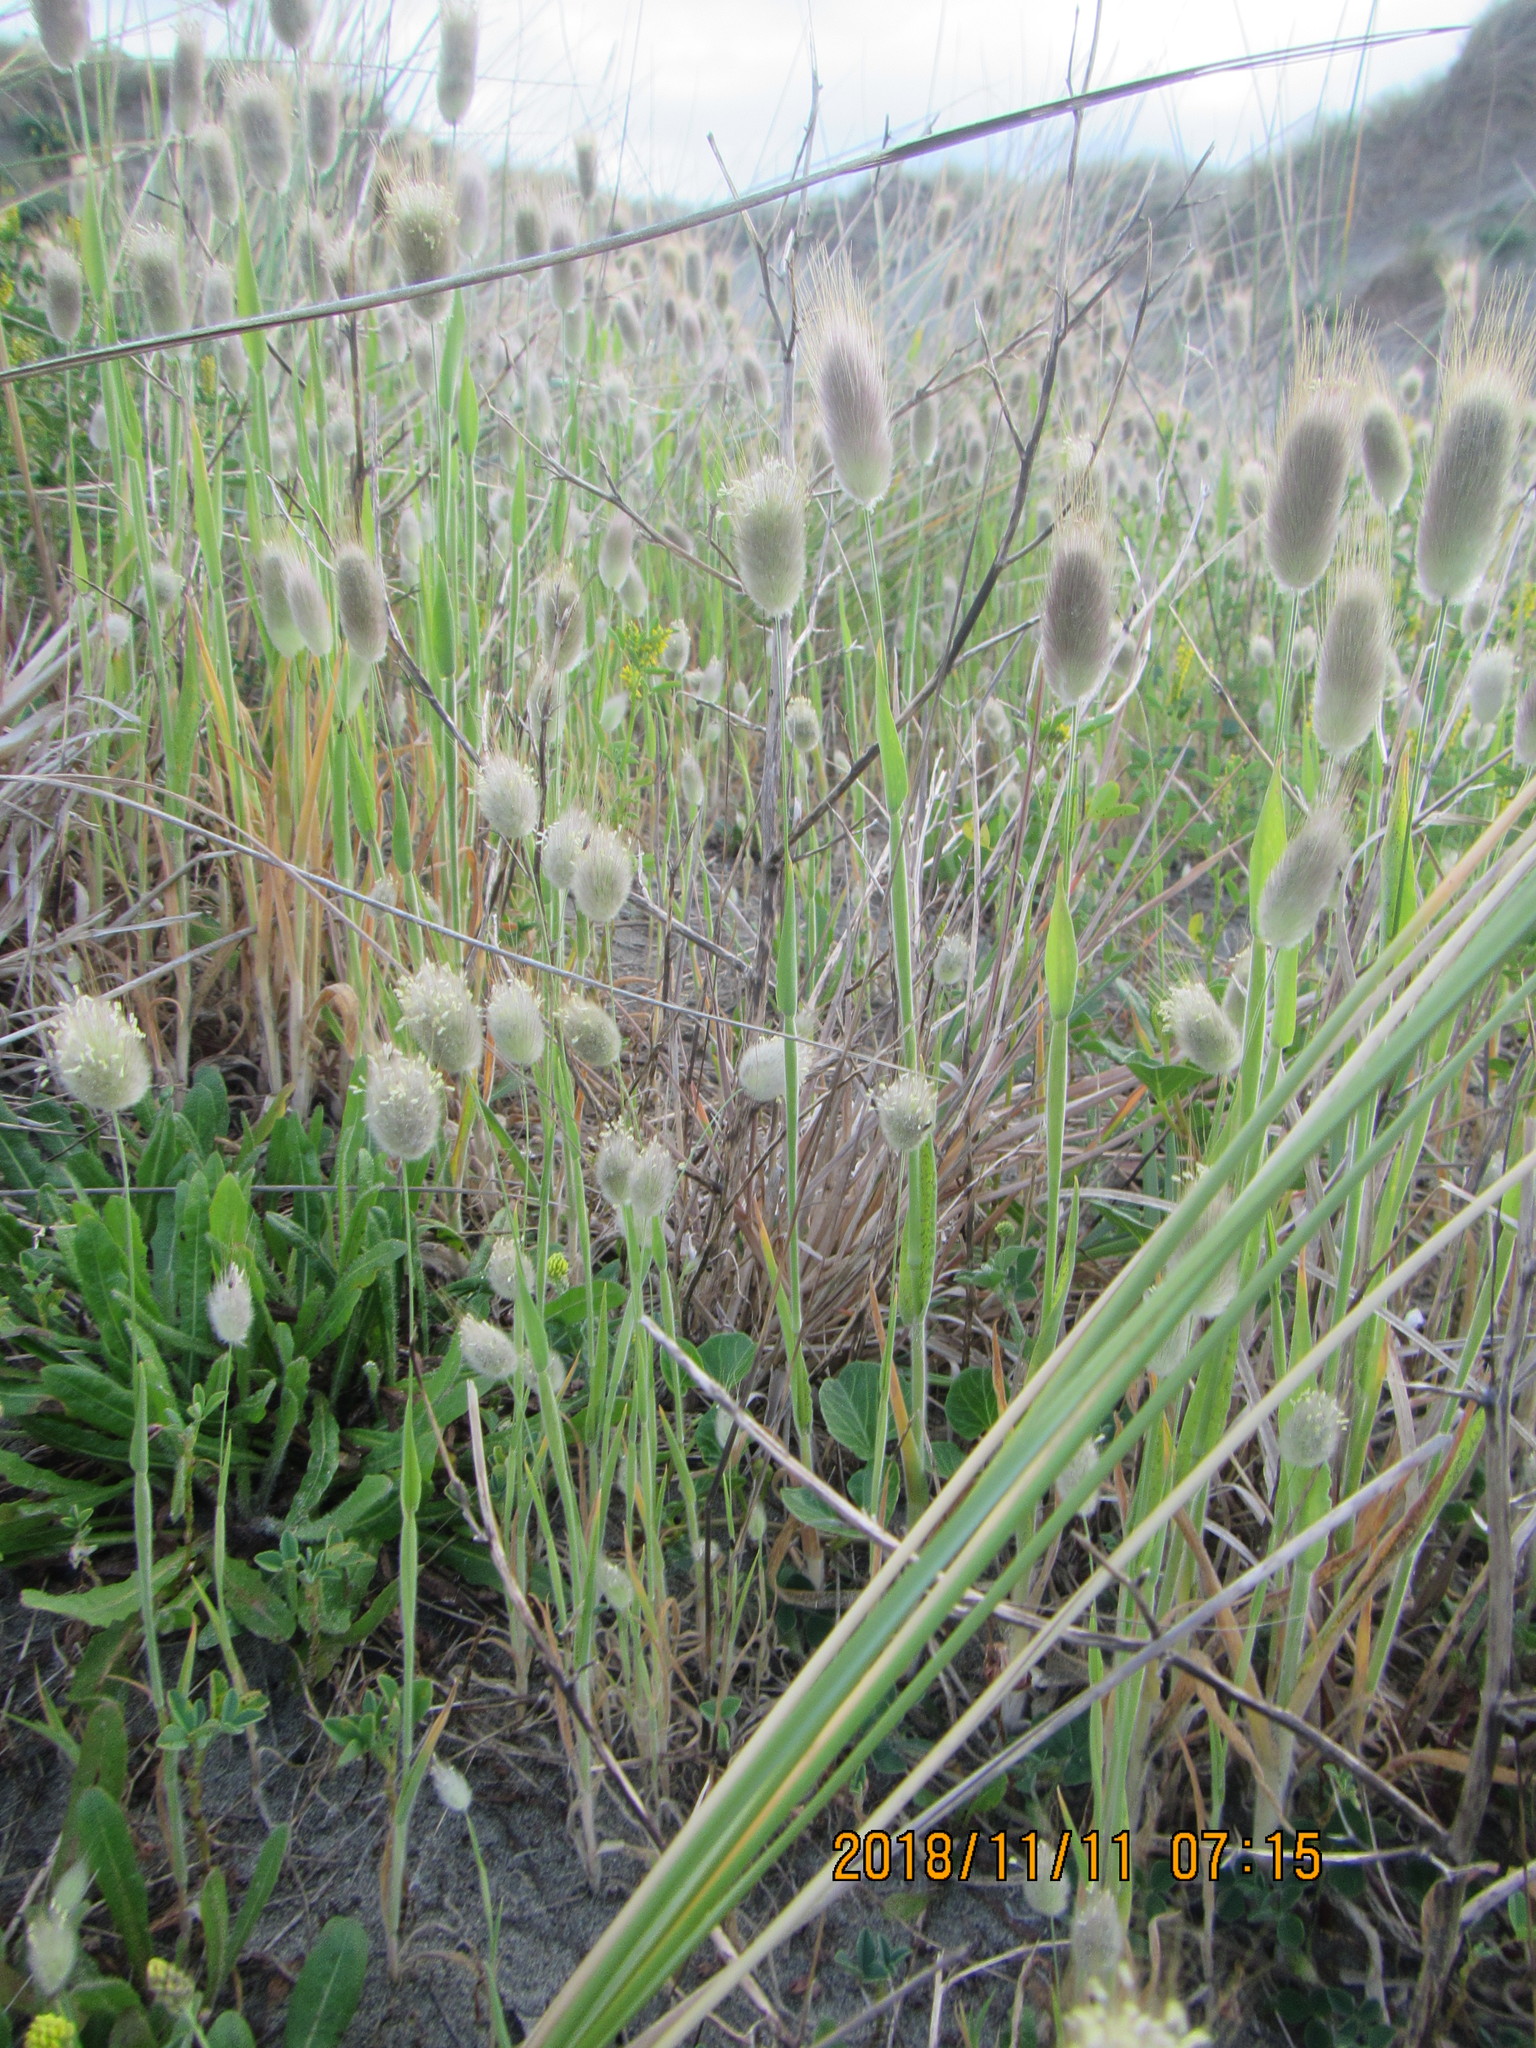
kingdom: Plantae
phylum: Tracheophyta
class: Liliopsida
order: Poales
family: Poaceae
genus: Lagurus
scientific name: Lagurus ovatus
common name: Hare's-tail
